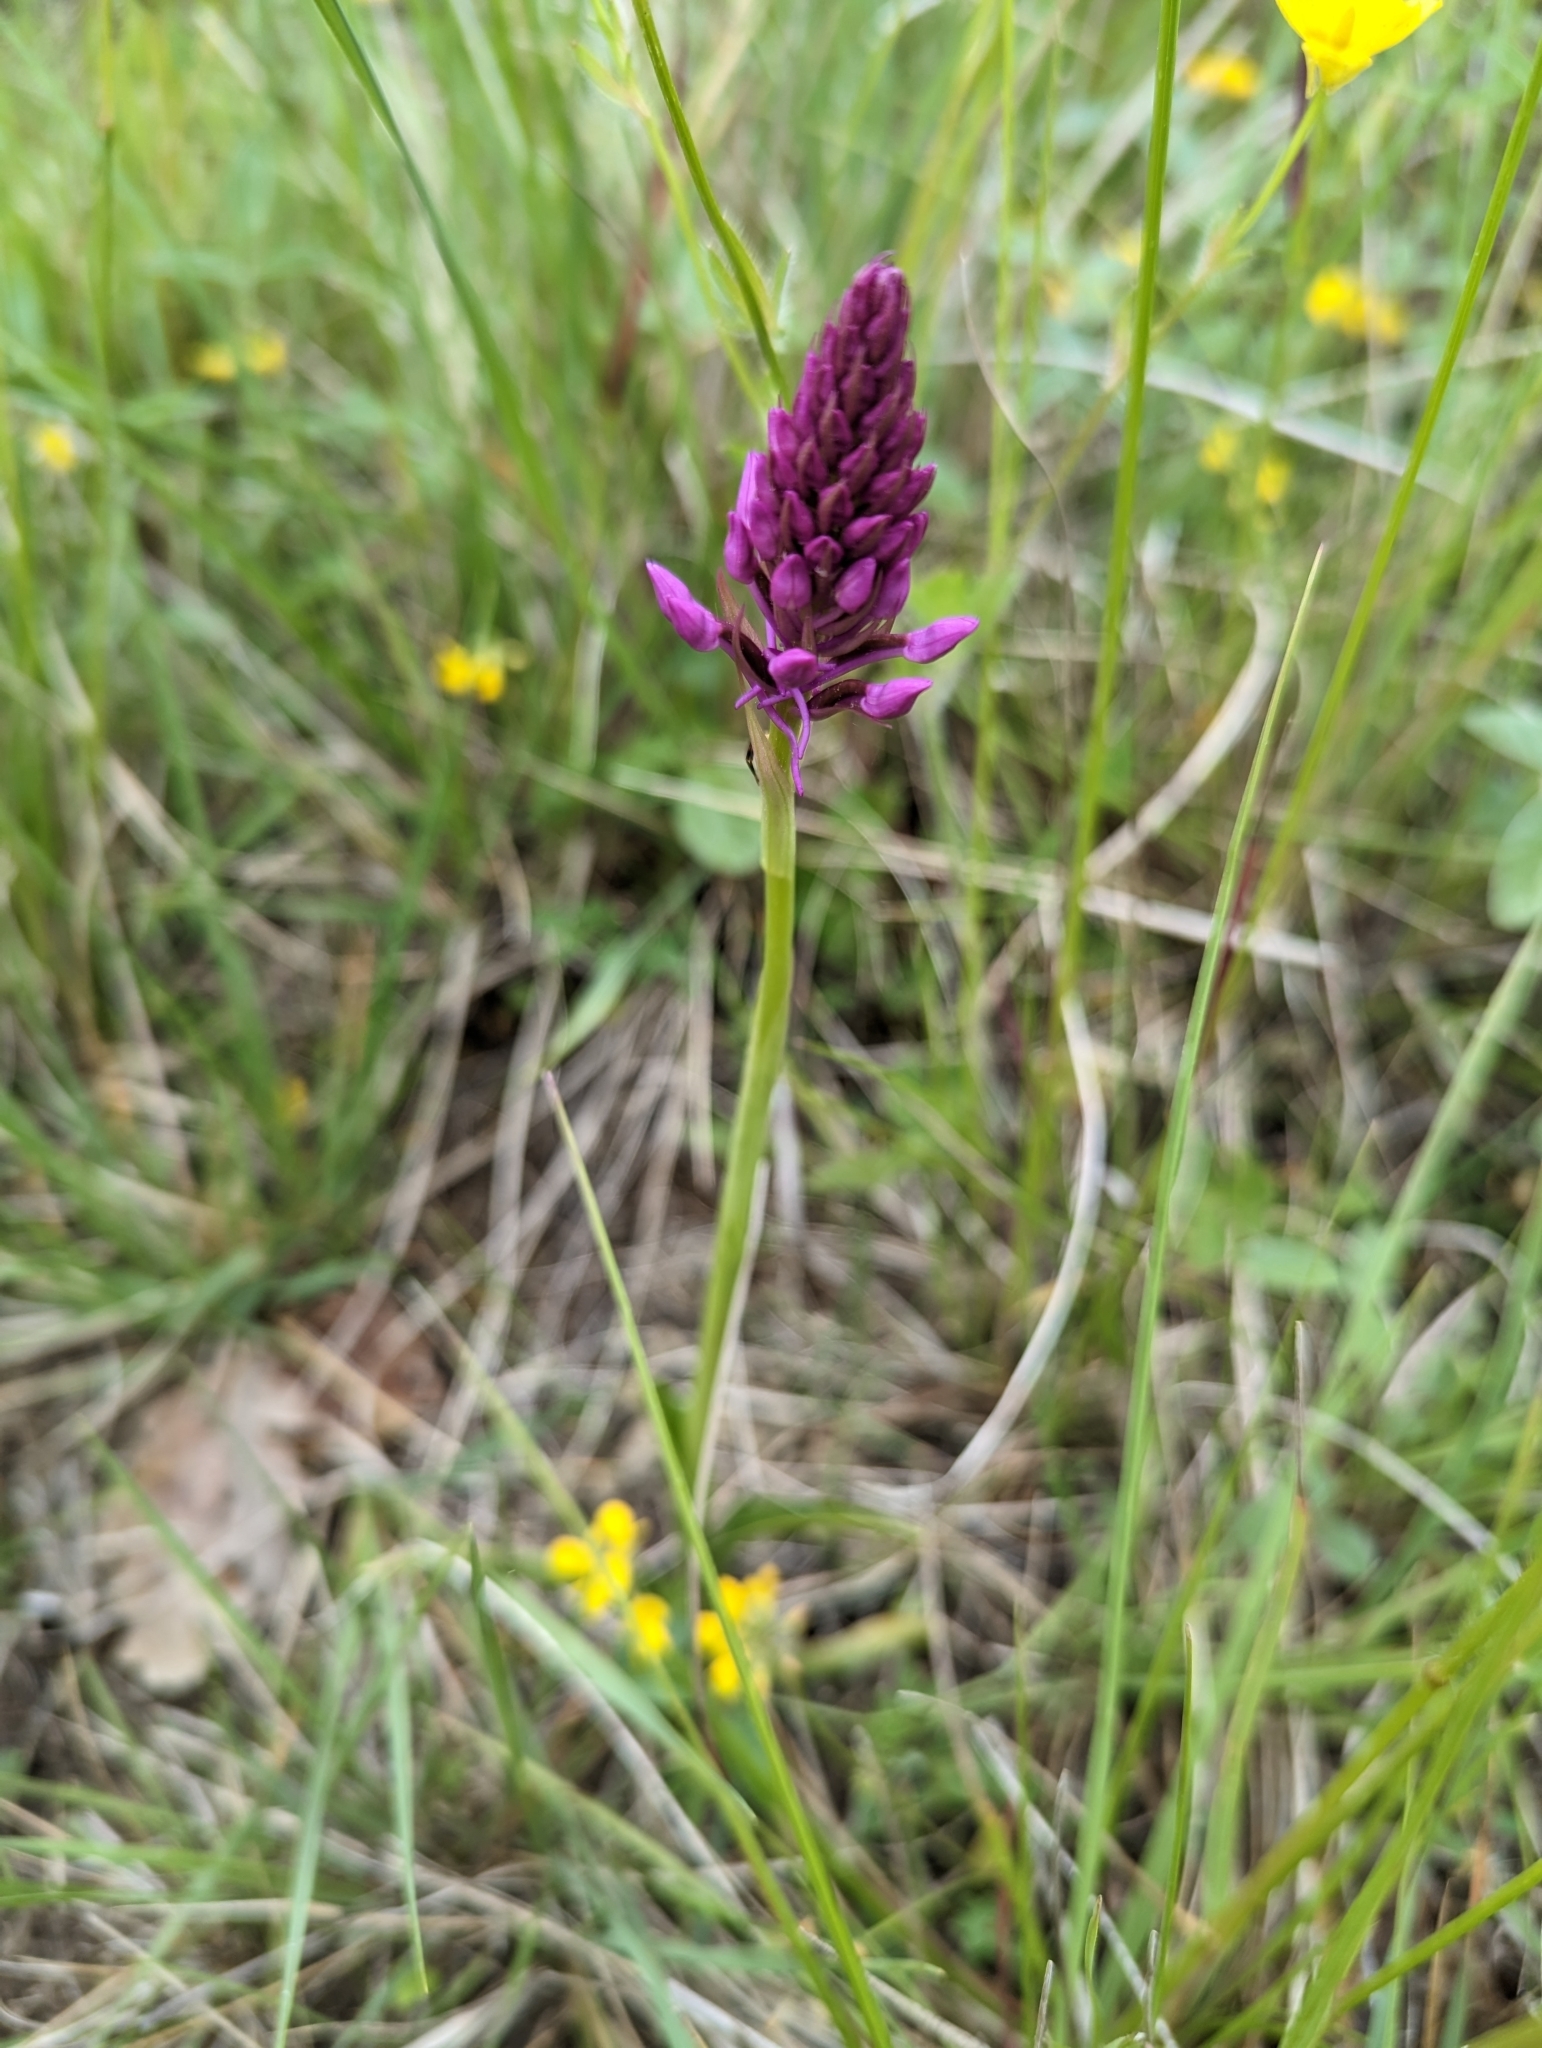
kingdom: Plantae
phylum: Tracheophyta
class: Liliopsida
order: Asparagales
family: Orchidaceae
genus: Anacamptis
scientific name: Anacamptis pyramidalis
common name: Pyramidal orchid
